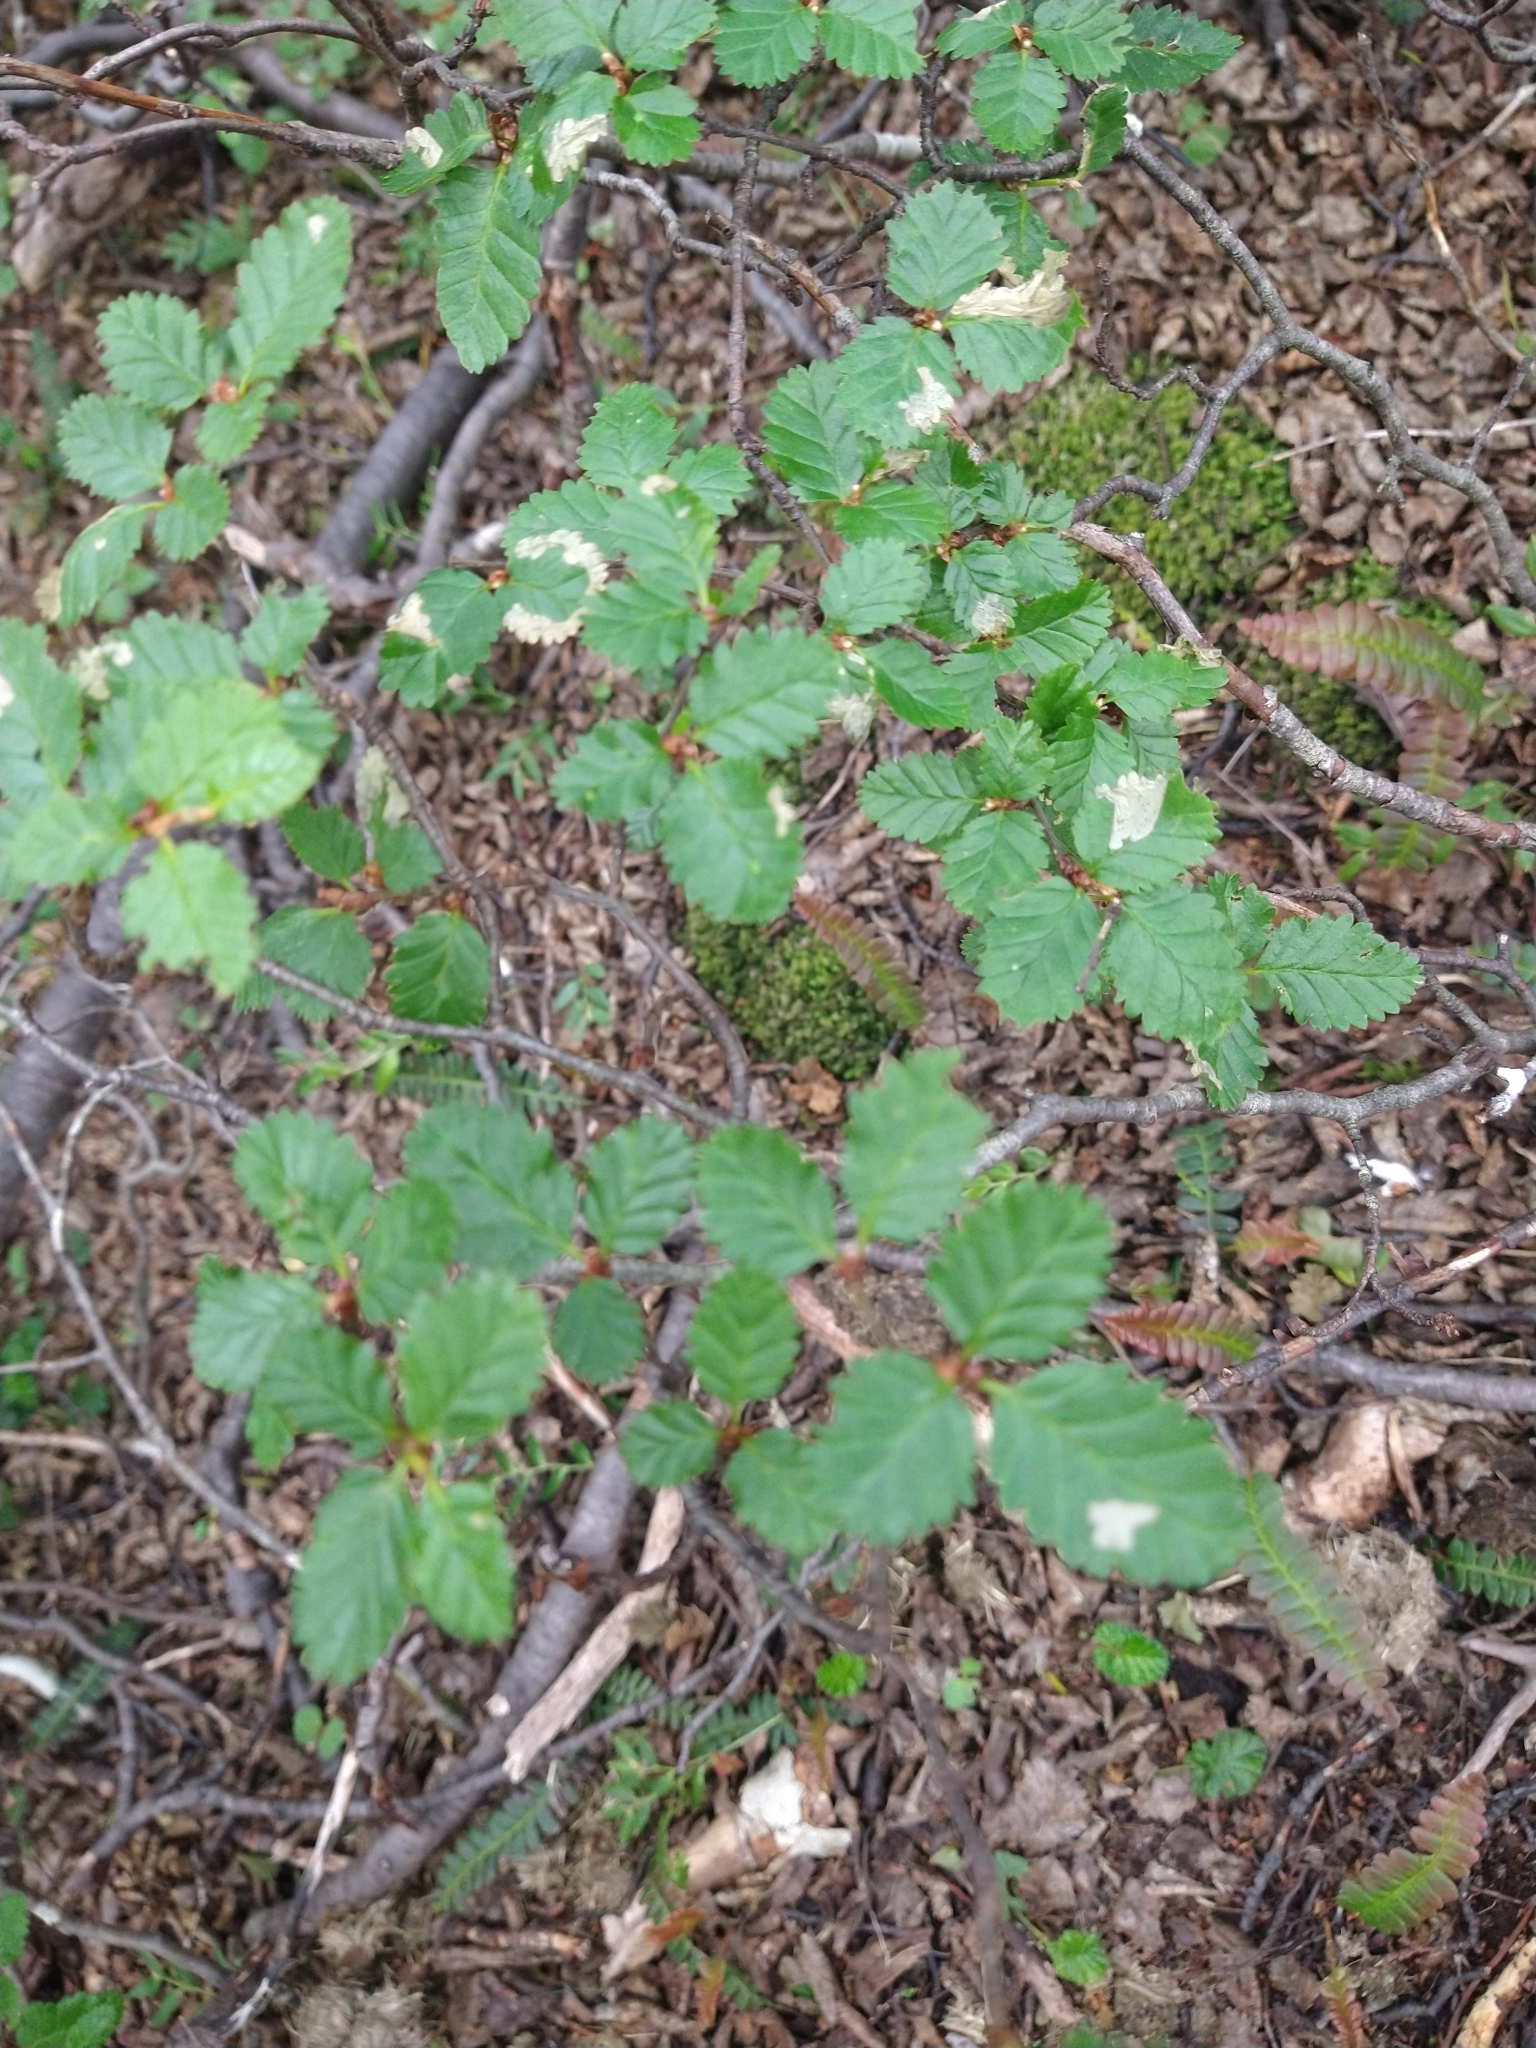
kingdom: Plantae
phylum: Tracheophyta
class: Magnoliopsida
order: Fagales
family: Nothofagaceae
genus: Nothofagus
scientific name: Nothofagus pumilio
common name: Lenga beech
